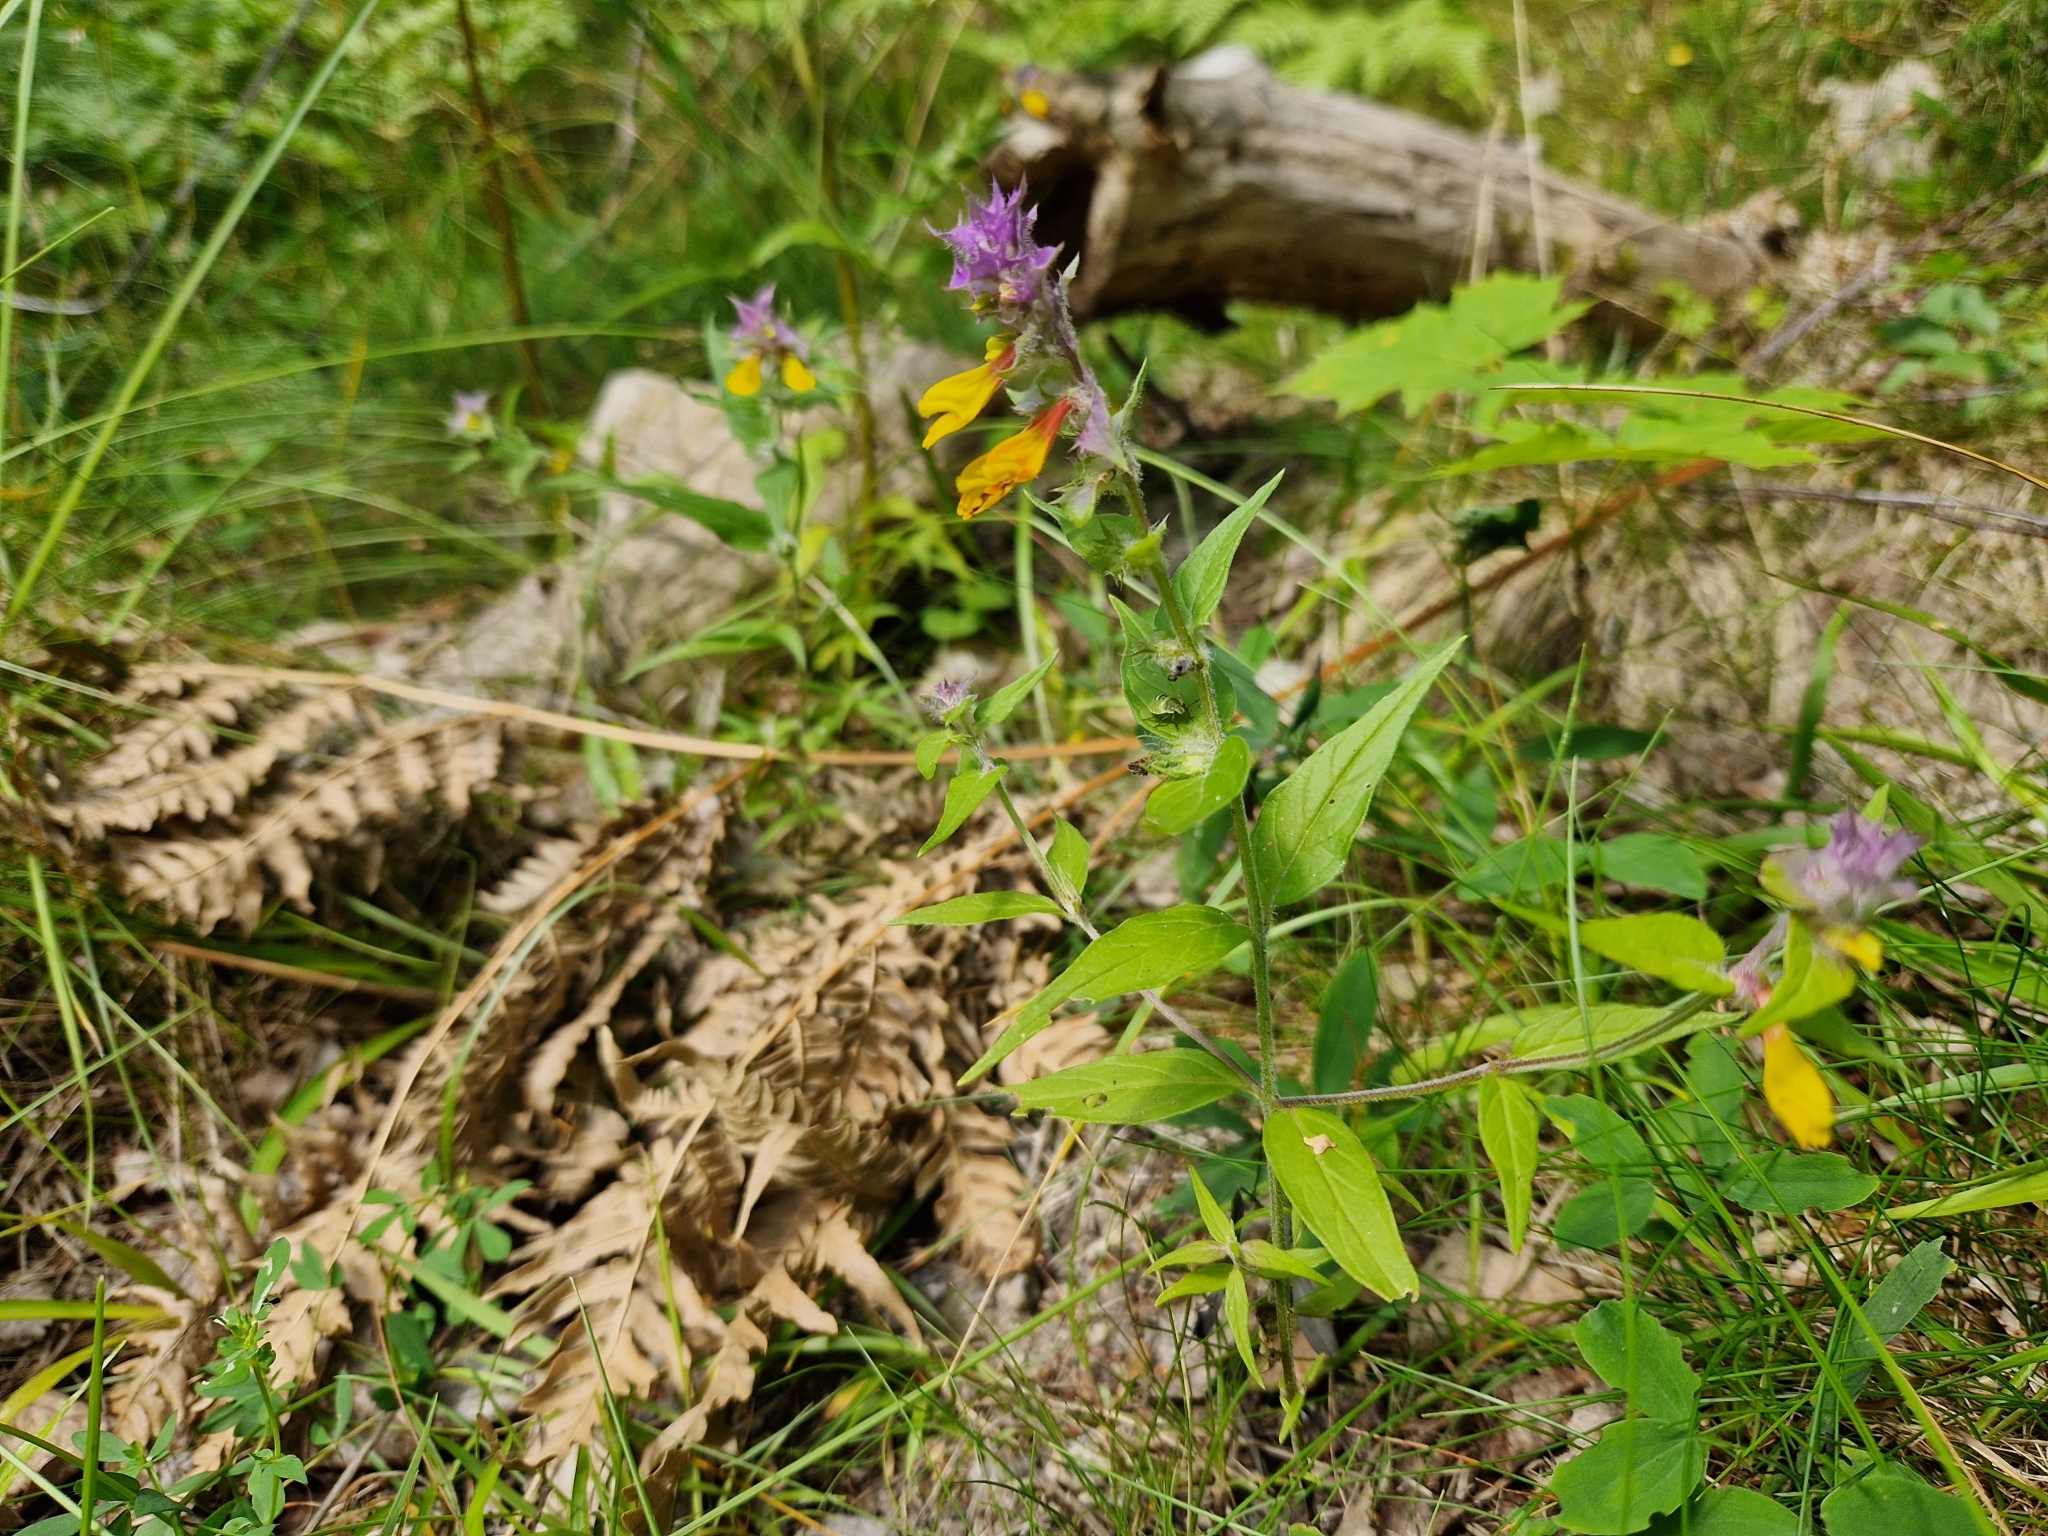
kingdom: Plantae
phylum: Tracheophyta
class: Magnoliopsida
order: Lamiales
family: Orobanchaceae
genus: Melampyrum
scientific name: Melampyrum nemorosum
